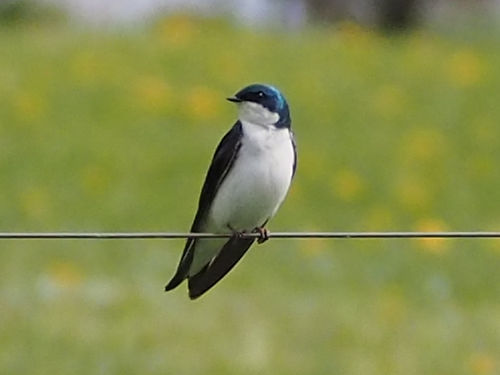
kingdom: Animalia
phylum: Chordata
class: Aves
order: Passeriformes
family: Hirundinidae
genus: Tachycineta
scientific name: Tachycineta bicolor
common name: Tree swallow
